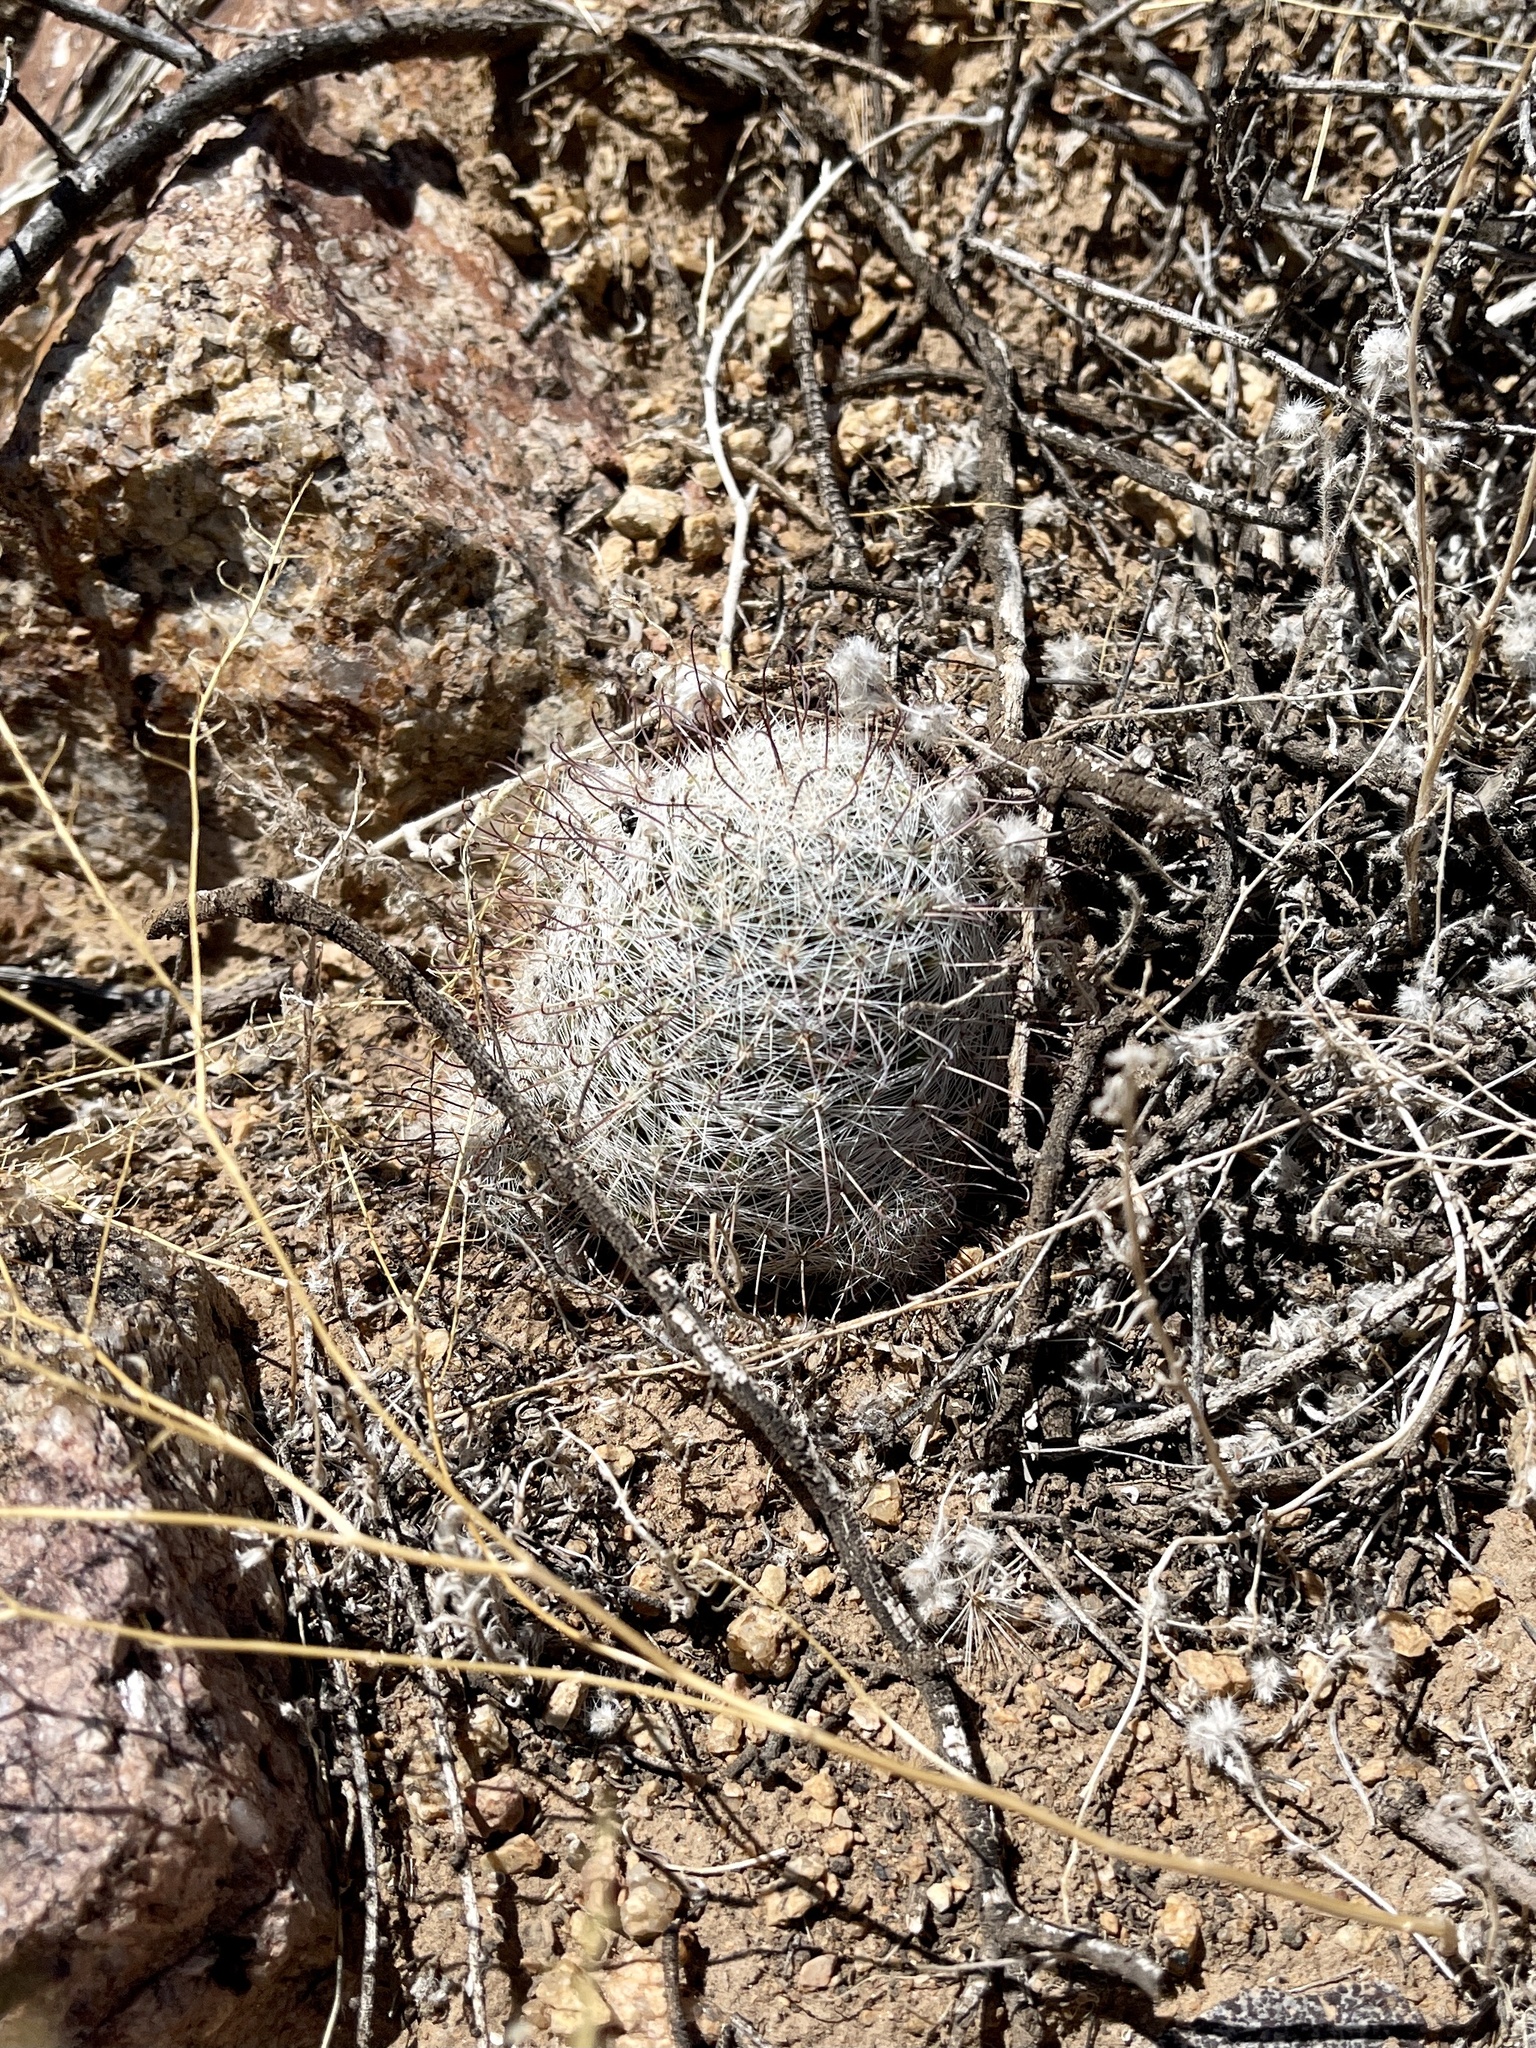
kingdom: Plantae
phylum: Tracheophyta
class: Magnoliopsida
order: Caryophyllales
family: Cactaceae
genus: Cochemiea
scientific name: Cochemiea grahamii
